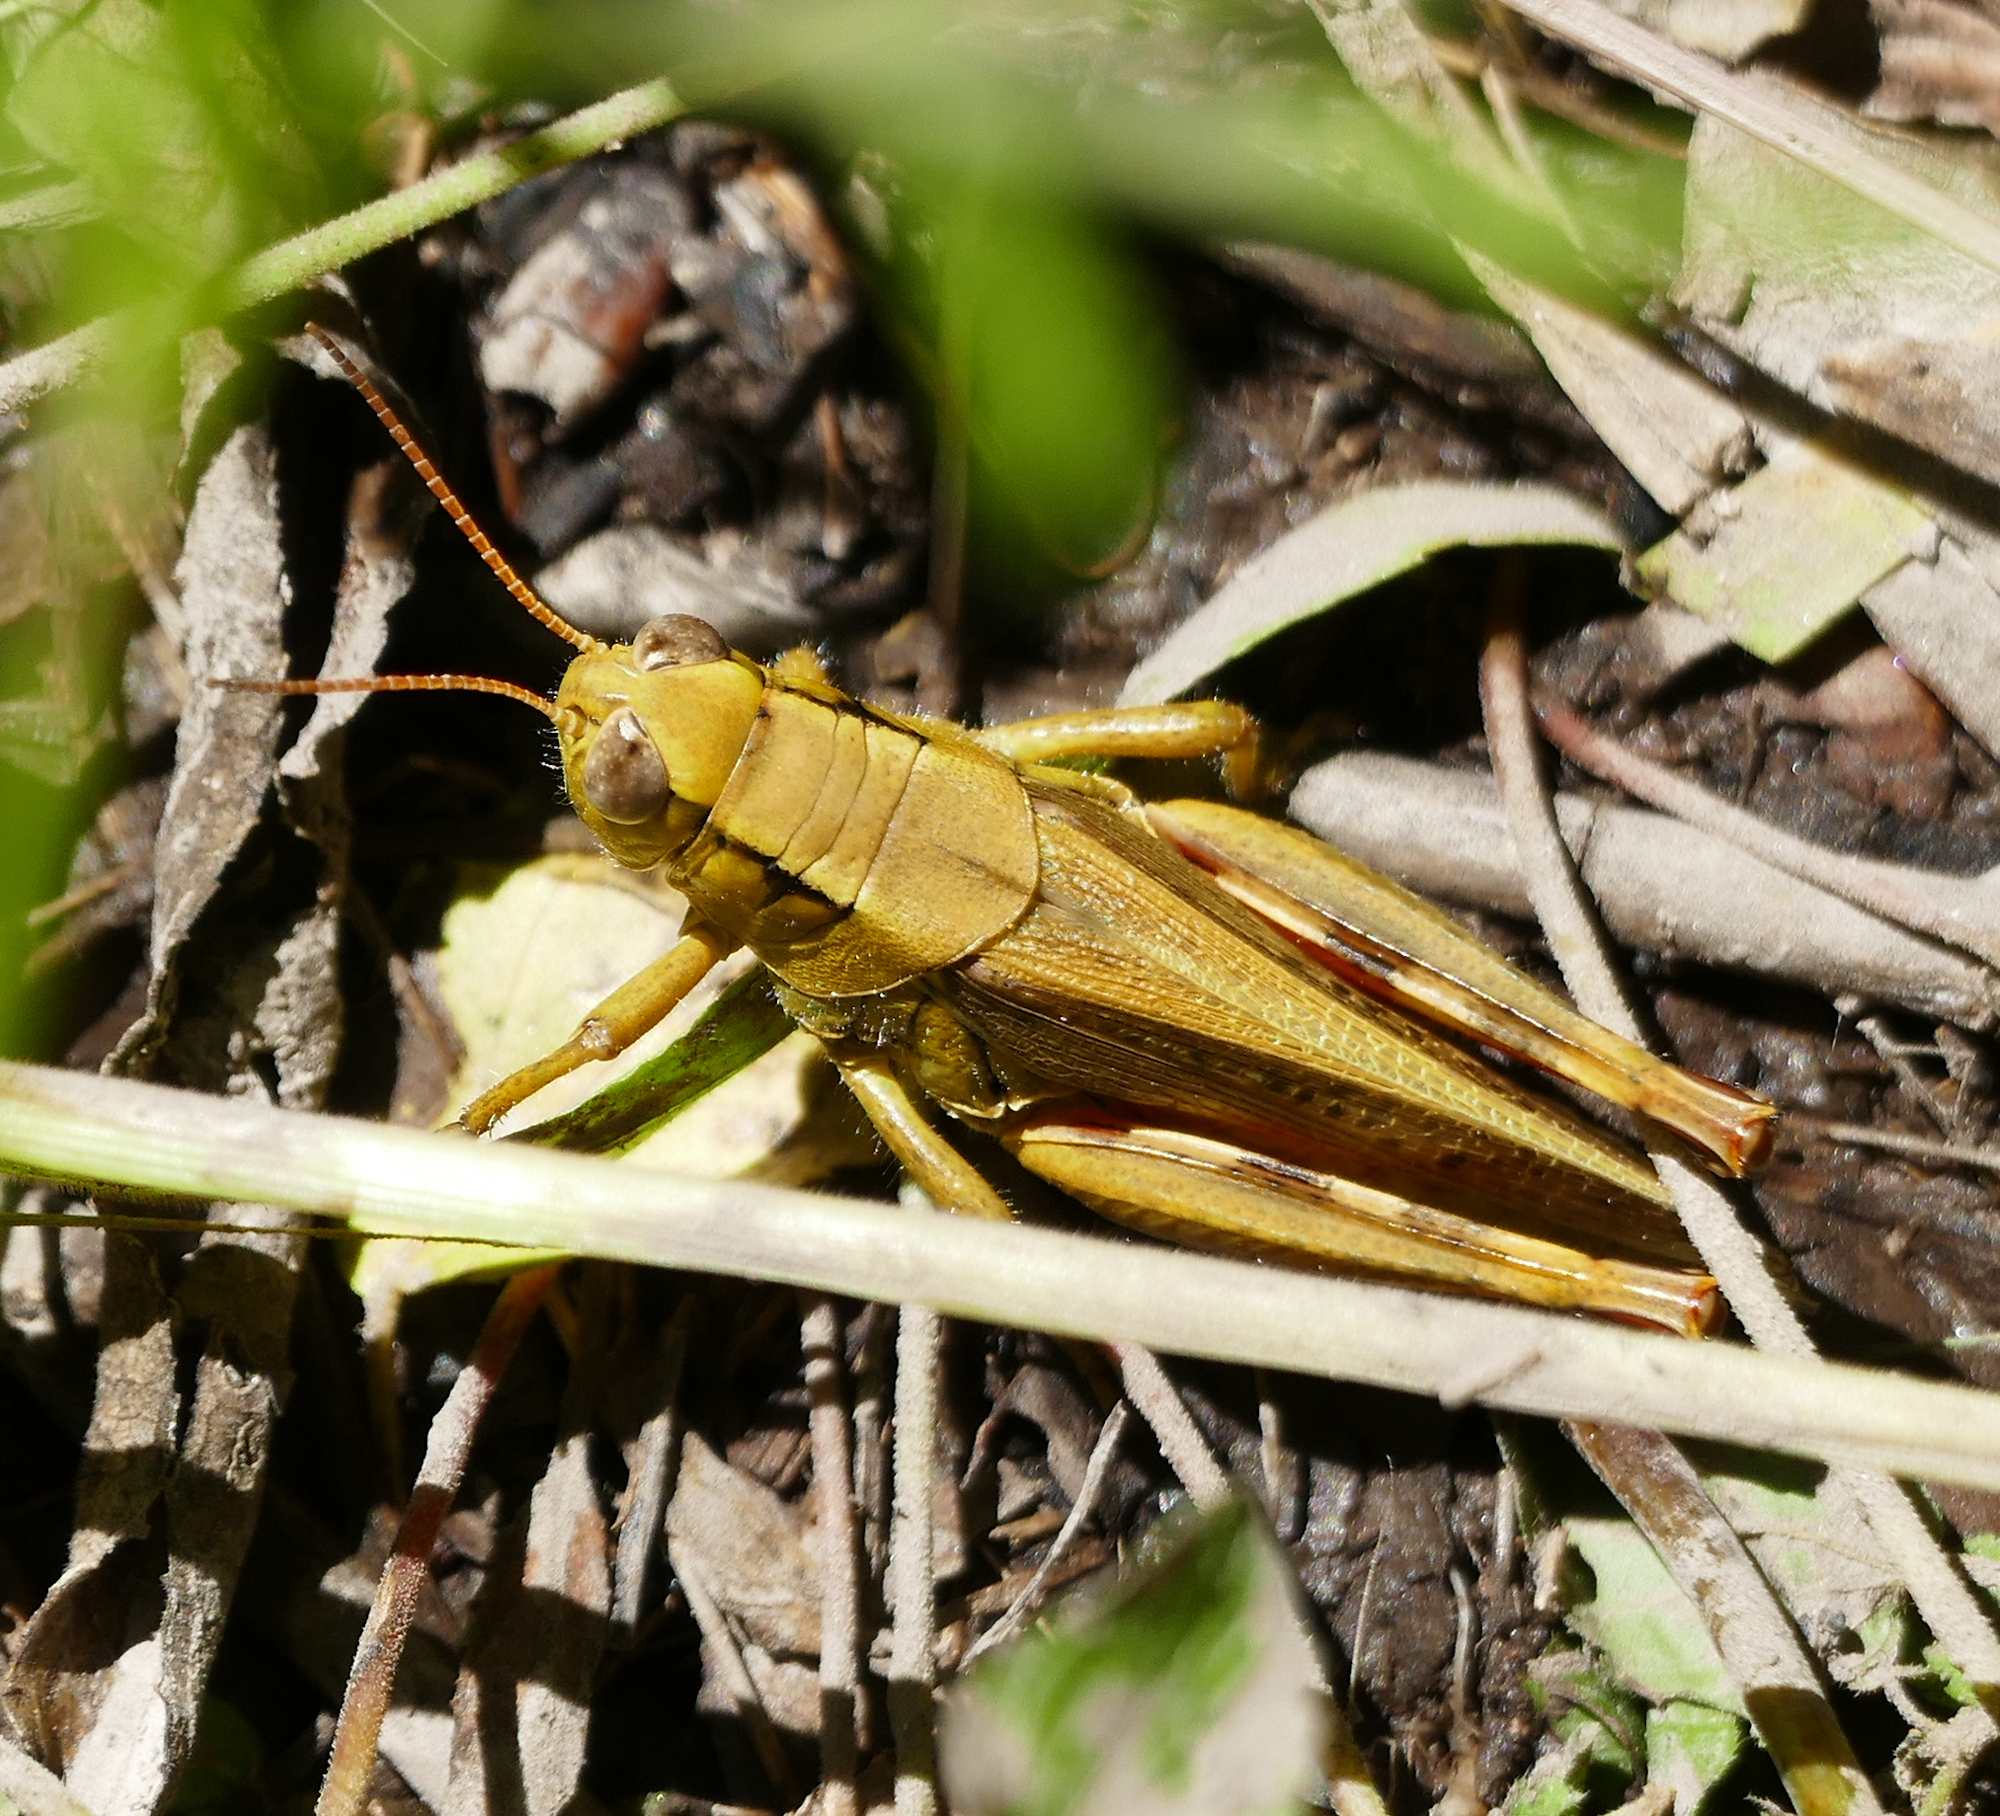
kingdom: Animalia
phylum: Arthropoda
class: Insecta
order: Orthoptera
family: Acrididae
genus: Melanoplus
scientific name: Melanoplus yarrowii
